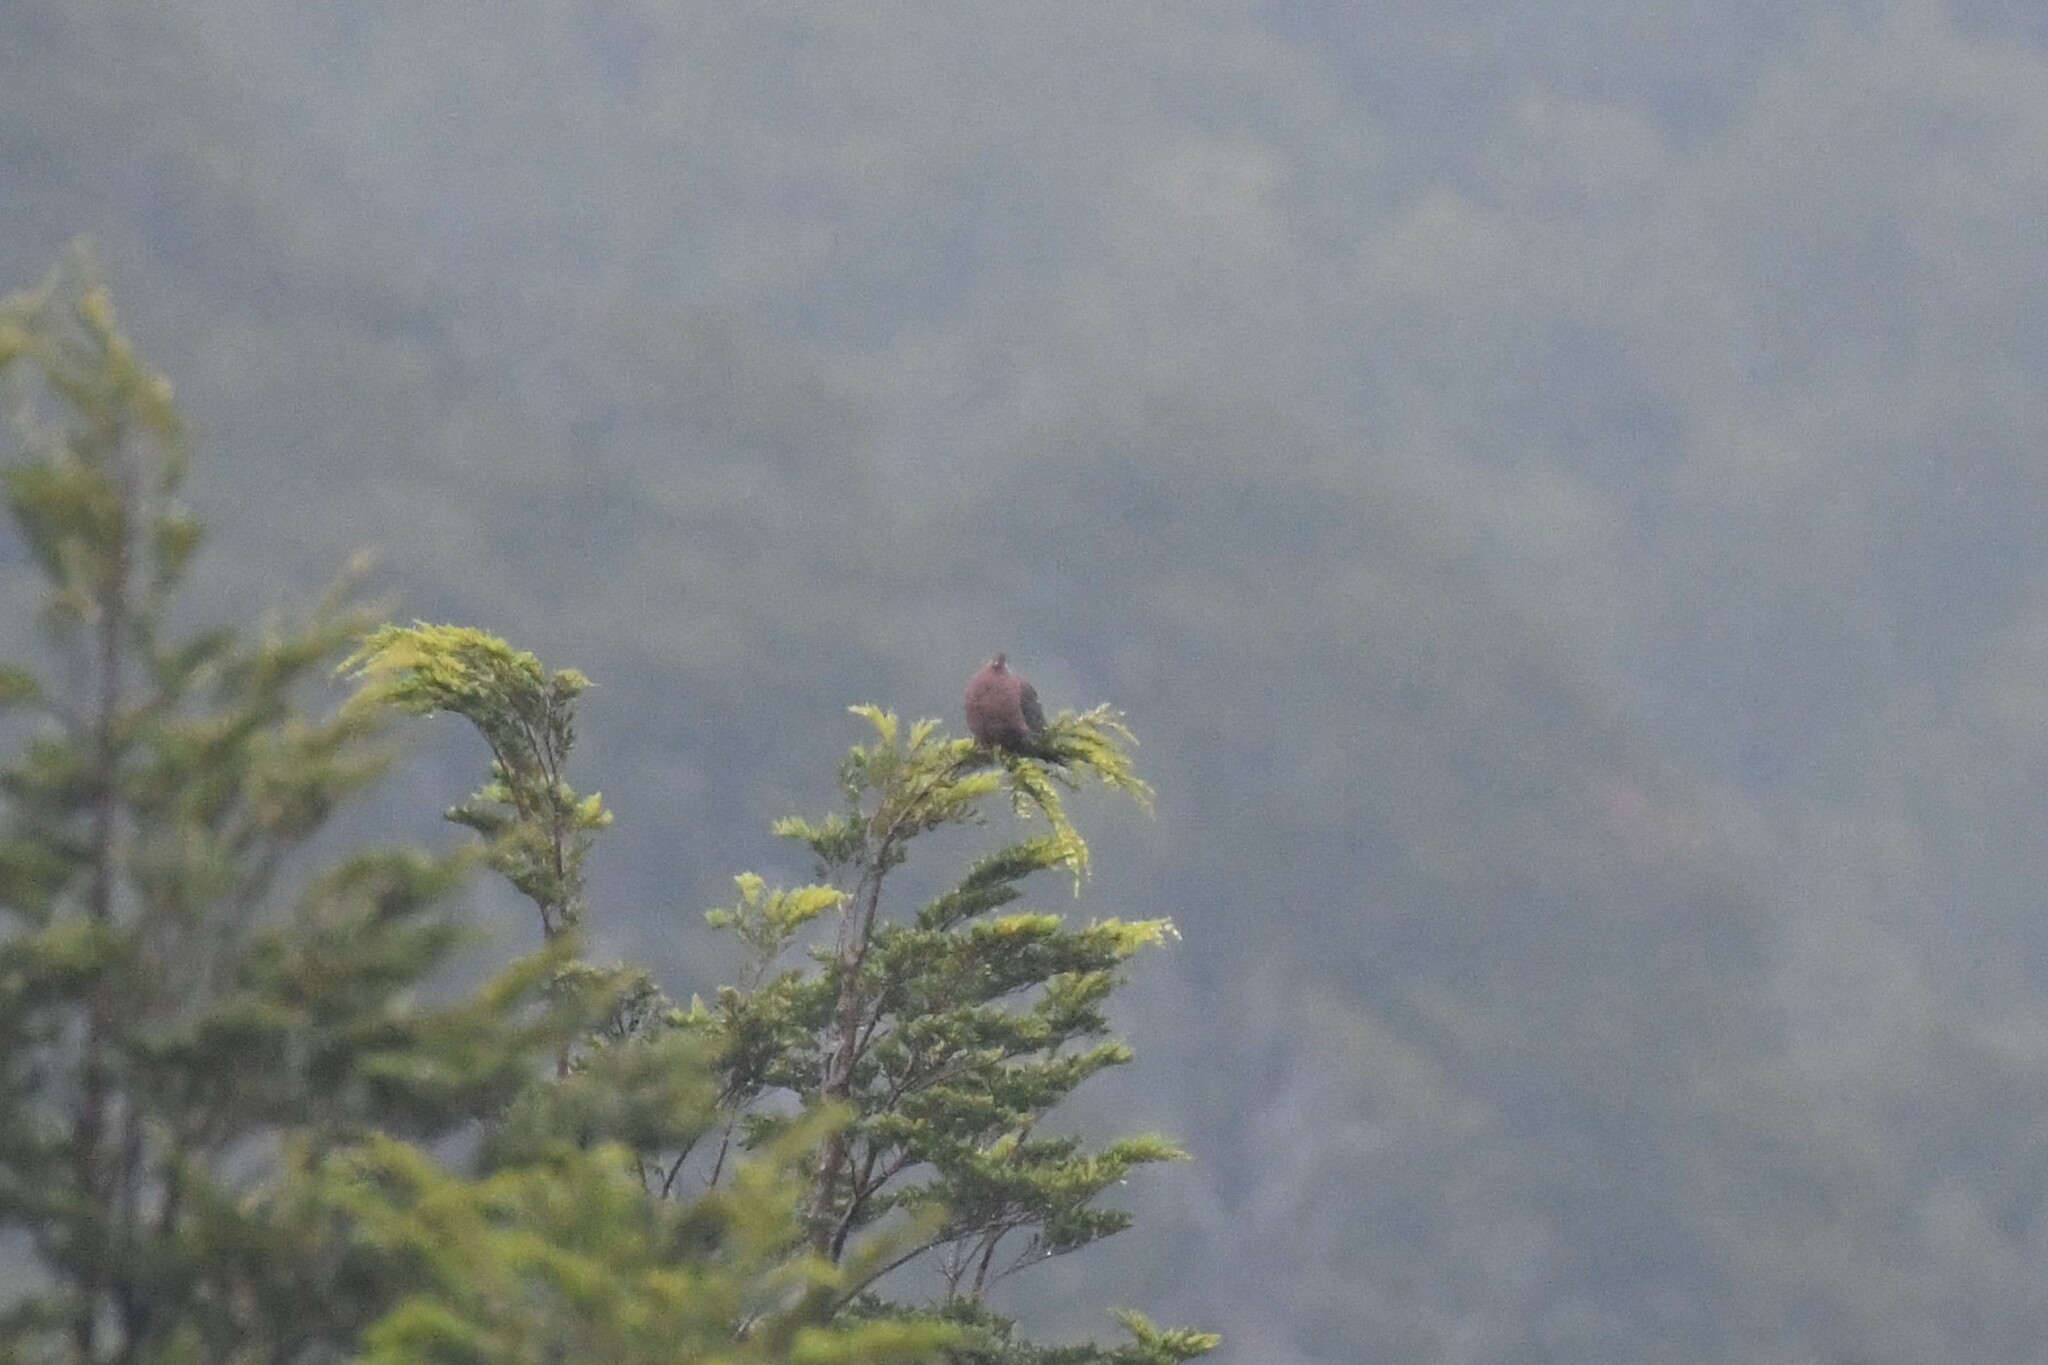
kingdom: Animalia
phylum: Chordata
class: Aves
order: Columbiformes
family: Columbidae
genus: Patagioenas
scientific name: Patagioenas araucana
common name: Chilean pigeon
